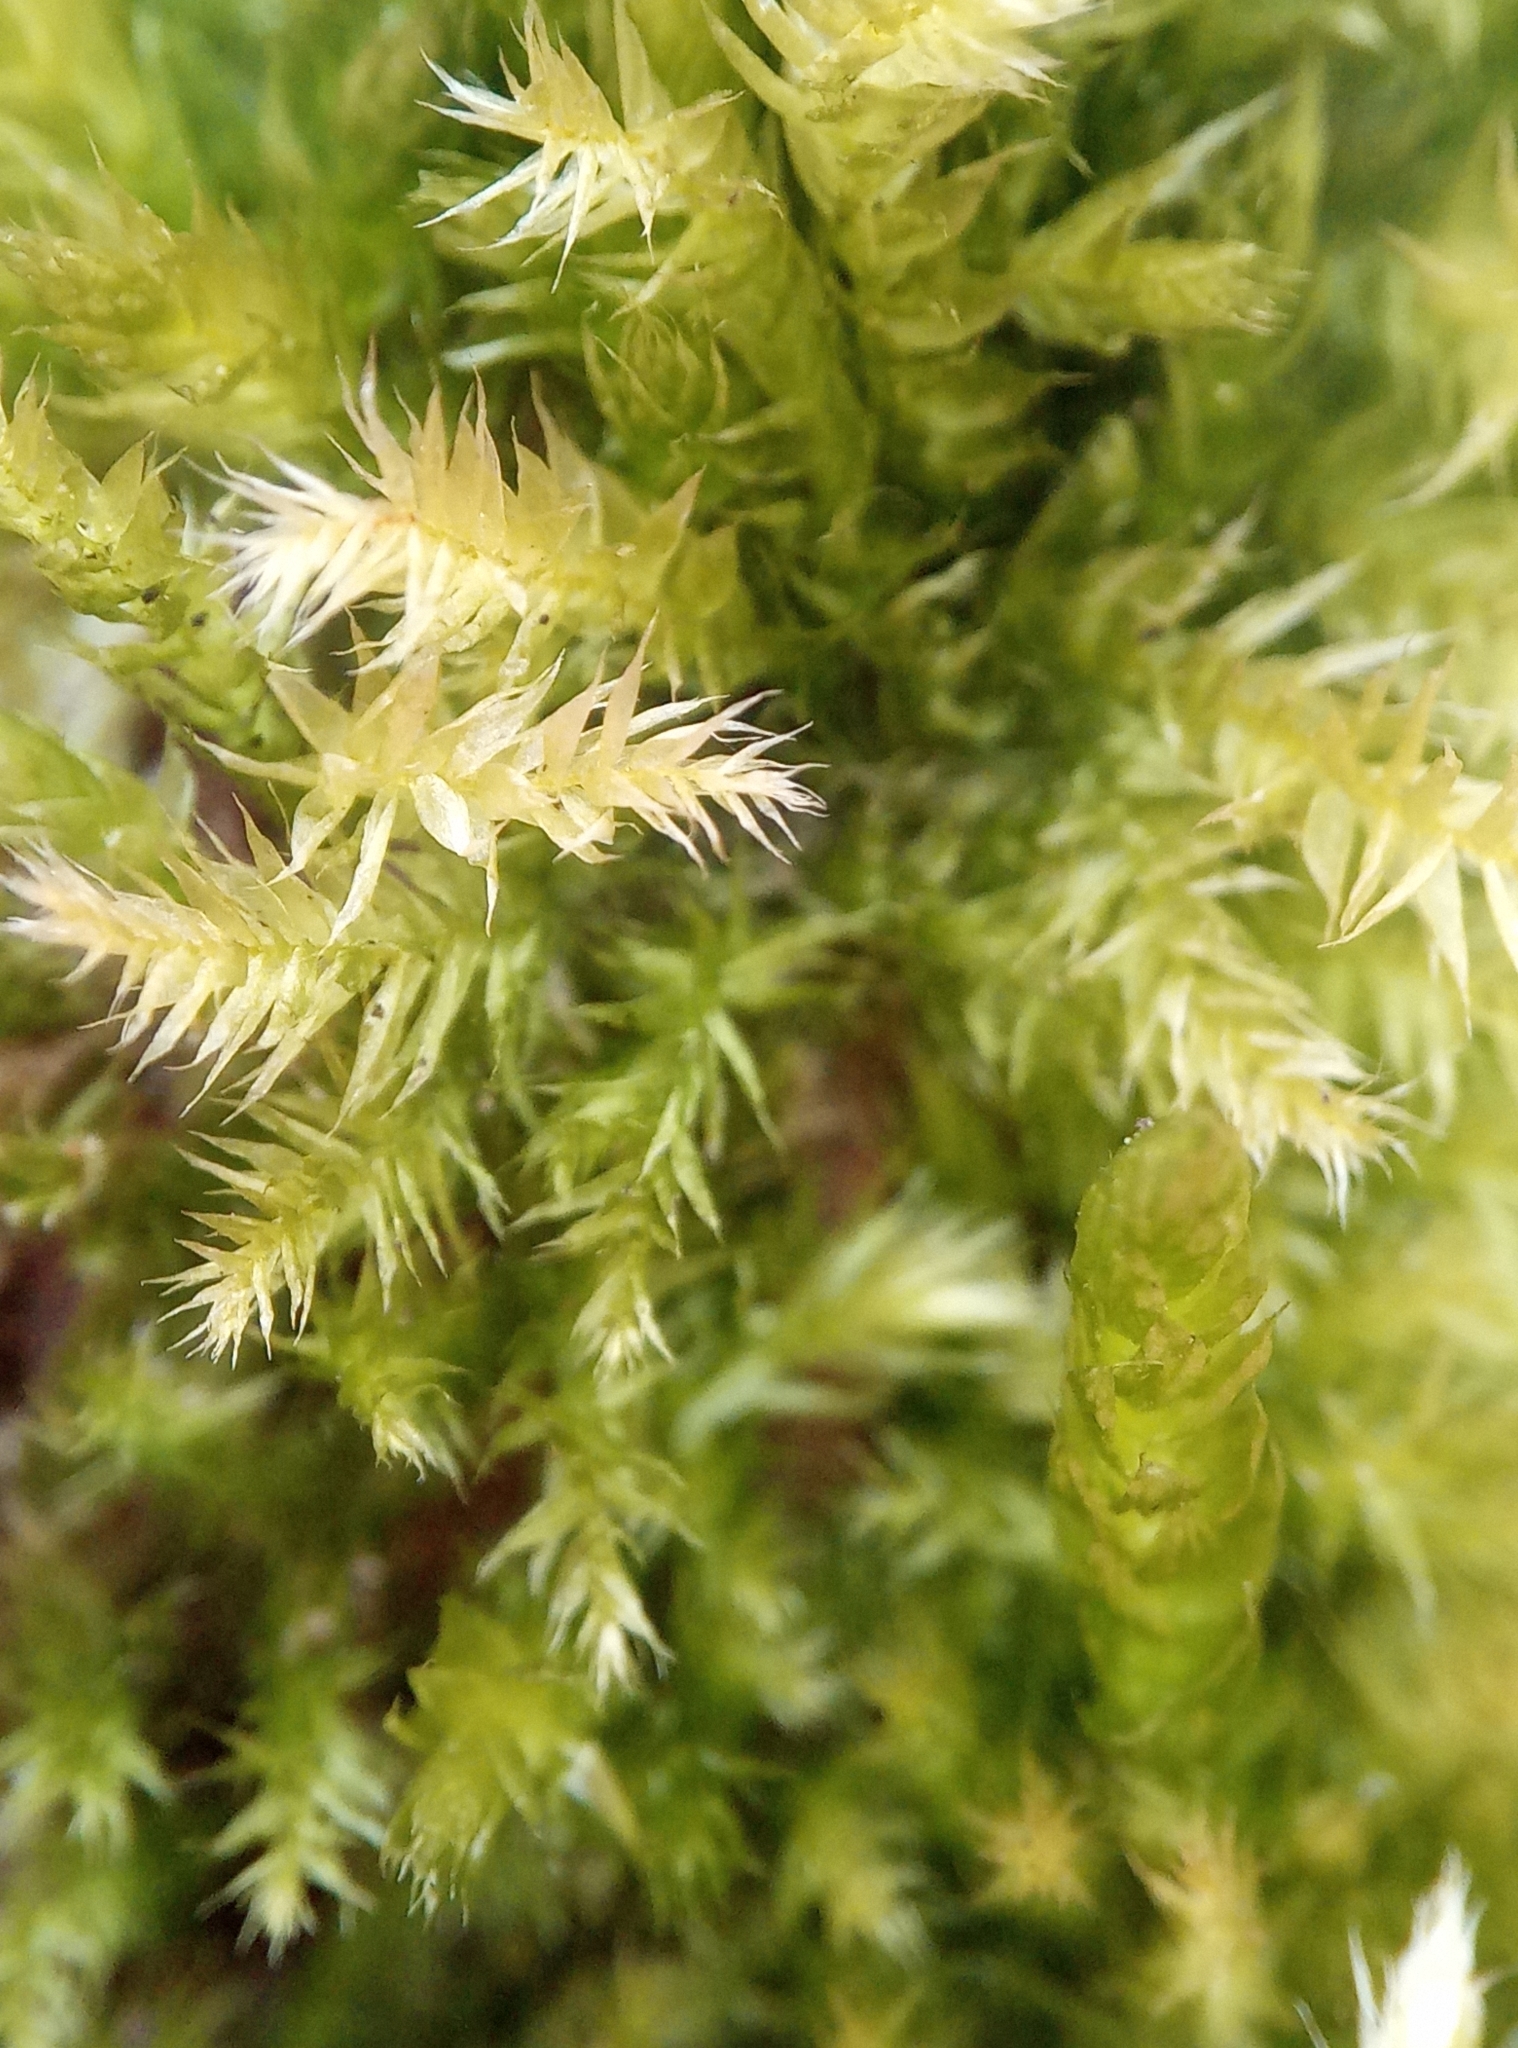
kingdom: Plantae
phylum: Bryophyta
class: Bryopsida
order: Hypnales
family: Brachytheciaceae
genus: Brachythecium
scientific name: Brachythecium rutabulum
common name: Rough-stalked feather-moss
